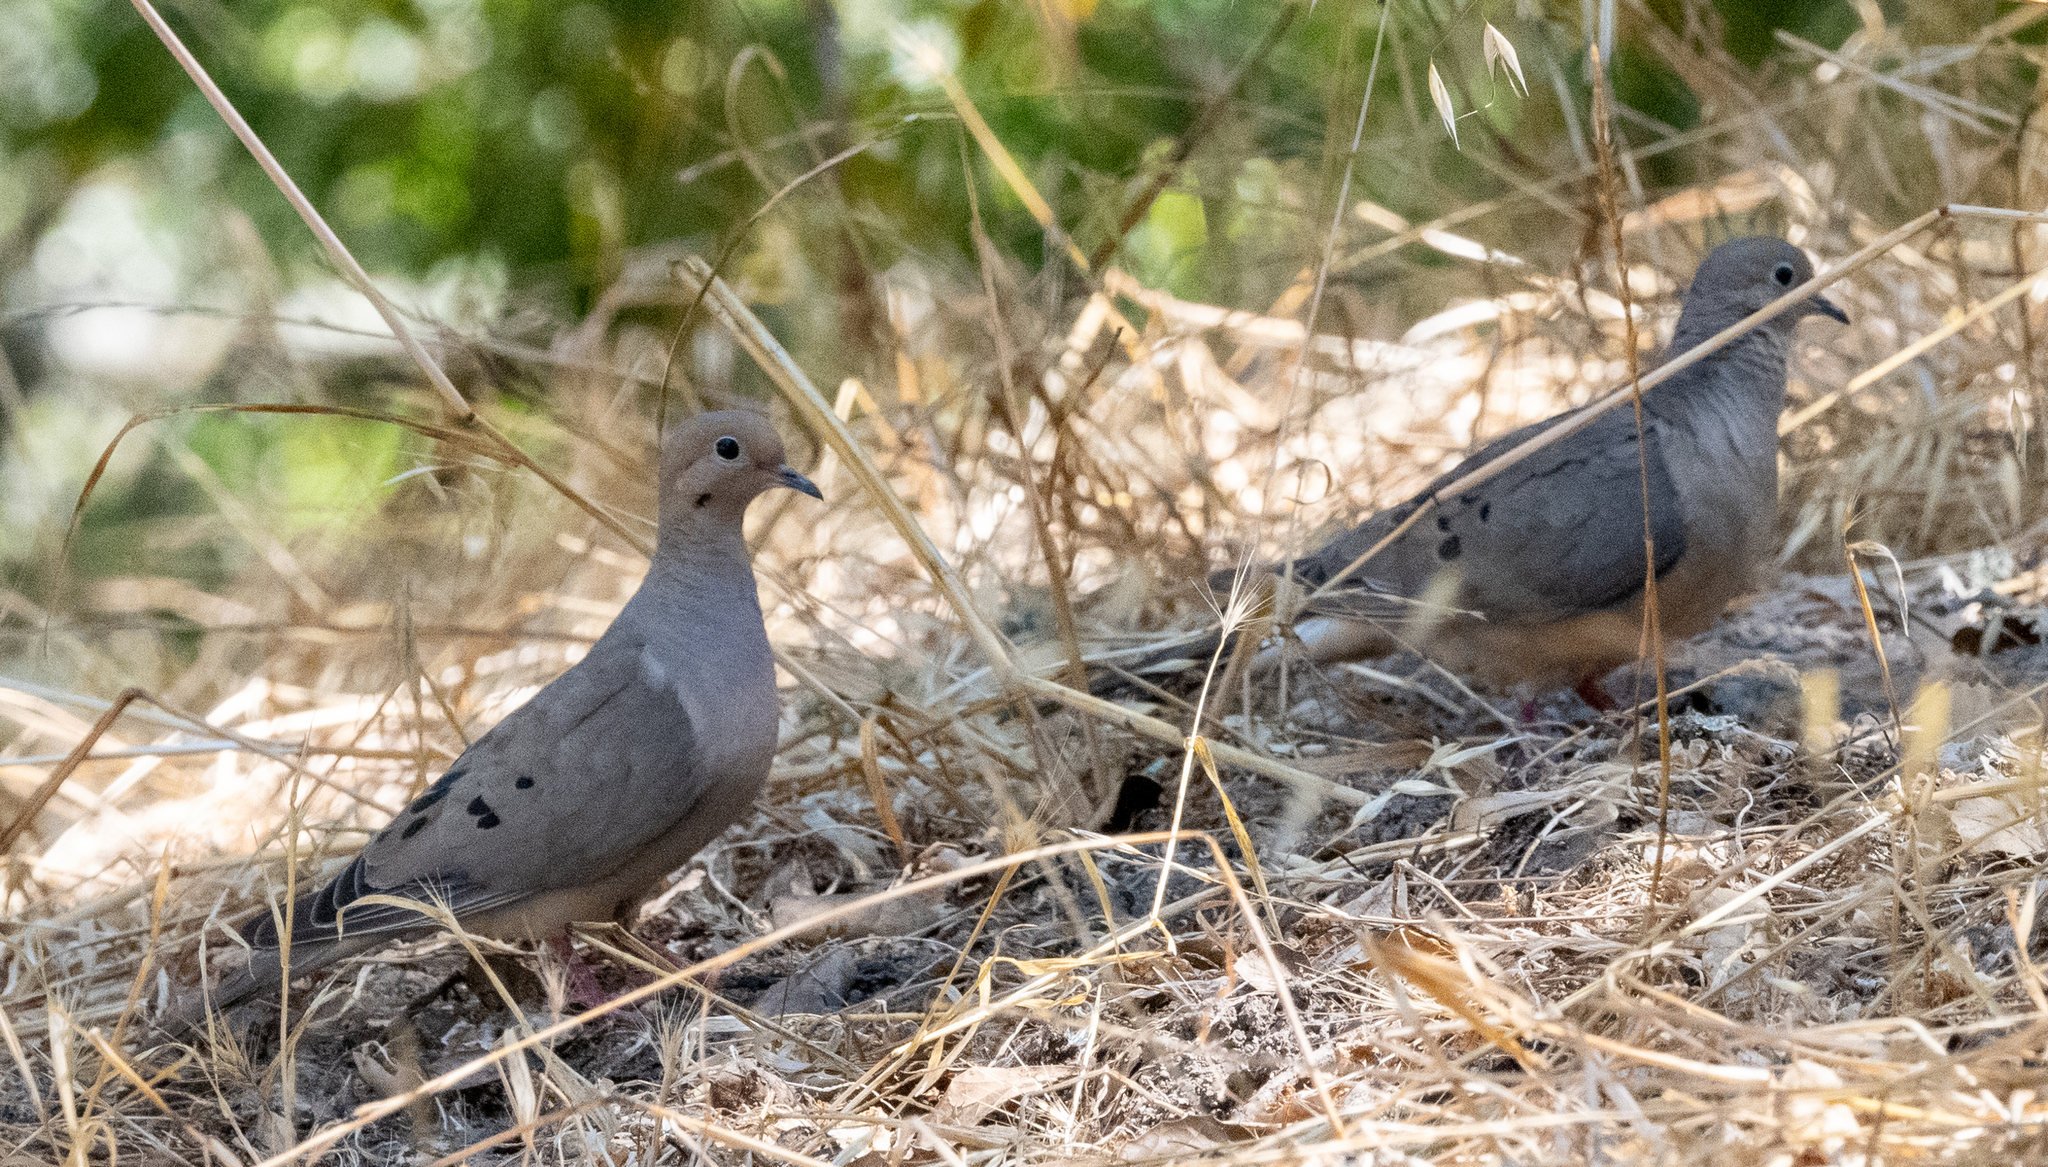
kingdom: Animalia
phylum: Chordata
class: Aves
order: Columbiformes
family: Columbidae
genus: Zenaida
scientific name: Zenaida macroura
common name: Mourning dove
